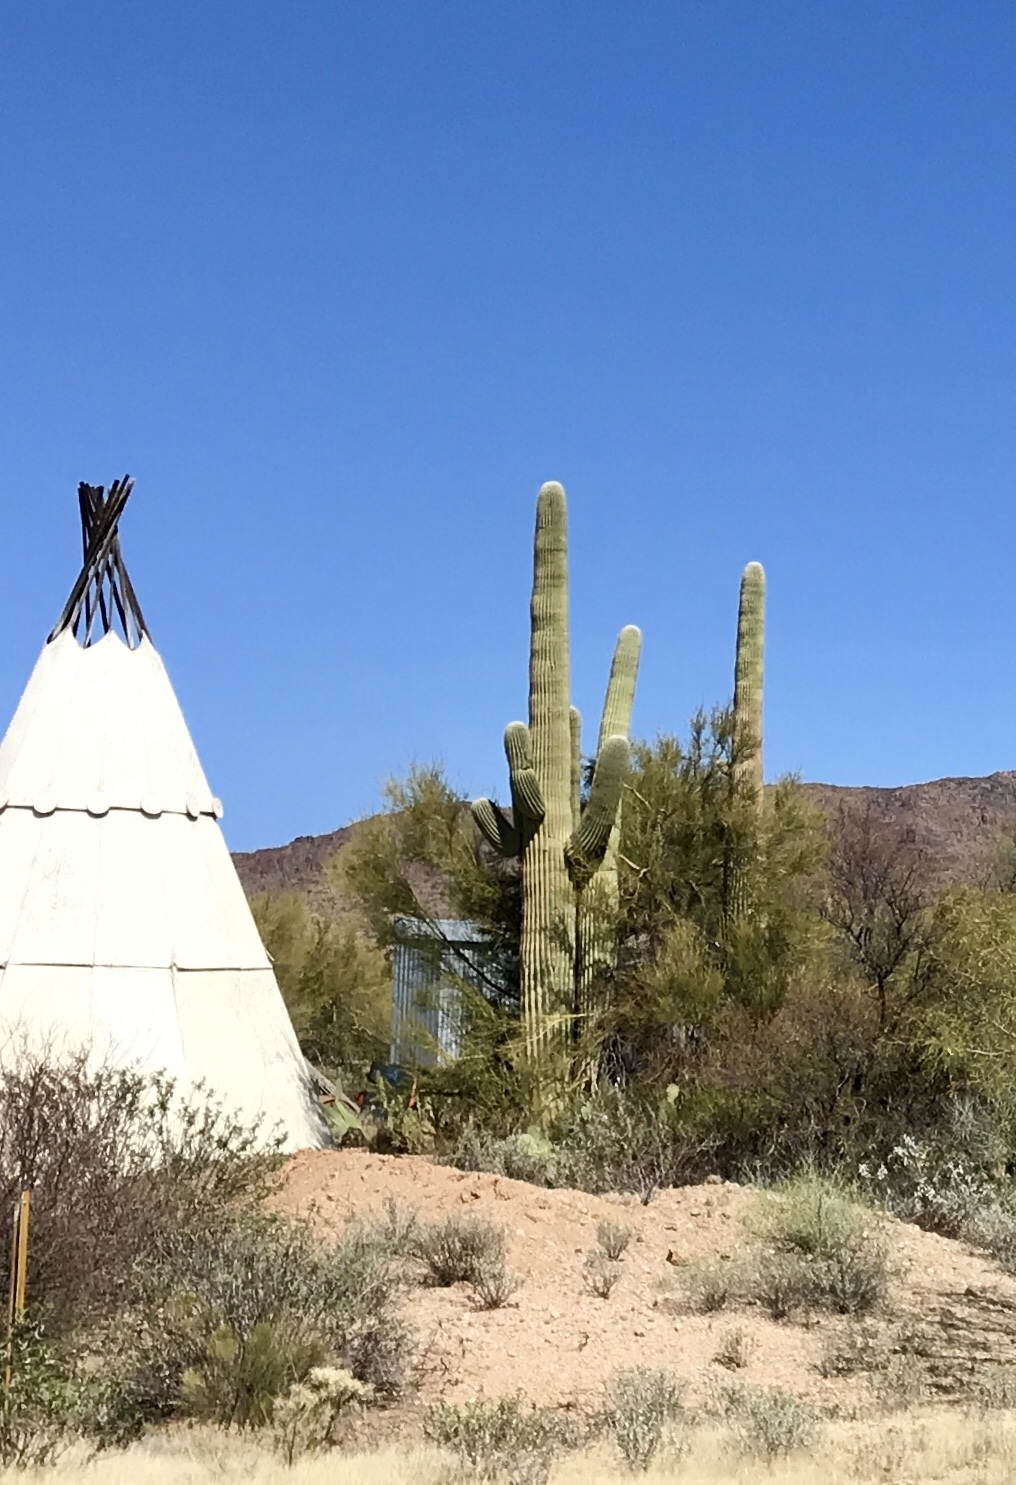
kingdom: Plantae
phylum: Tracheophyta
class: Magnoliopsida
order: Caryophyllales
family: Cactaceae
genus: Carnegiea
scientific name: Carnegiea gigantea
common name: Saguaro
